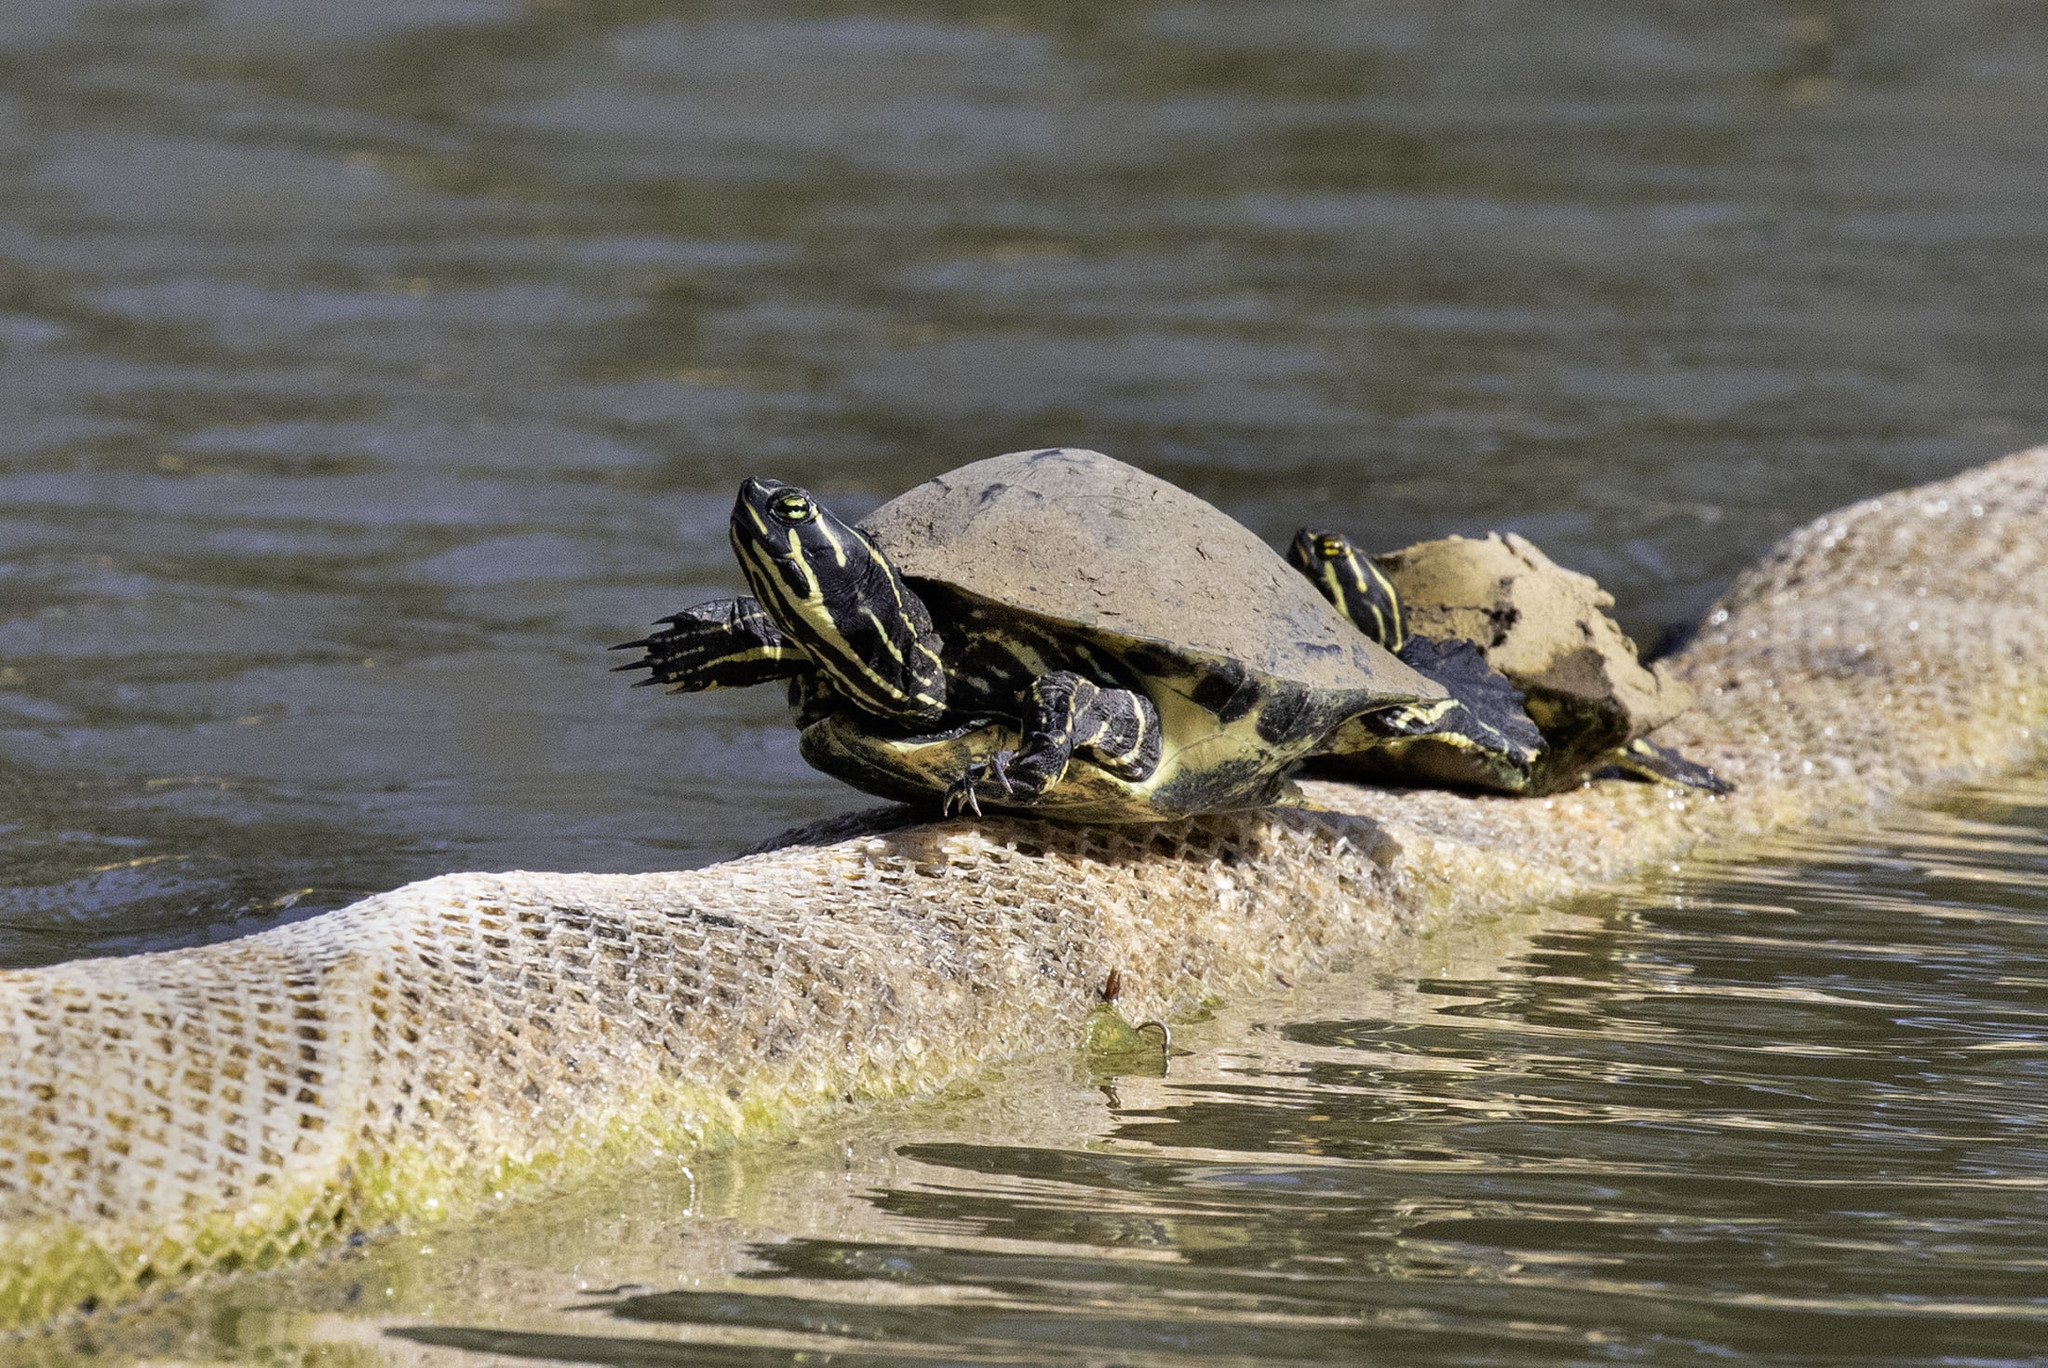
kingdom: Animalia
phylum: Chordata
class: Testudines
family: Emydidae
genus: Pseudemys
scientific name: Pseudemys peninsularis
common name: Peninsula cooter
